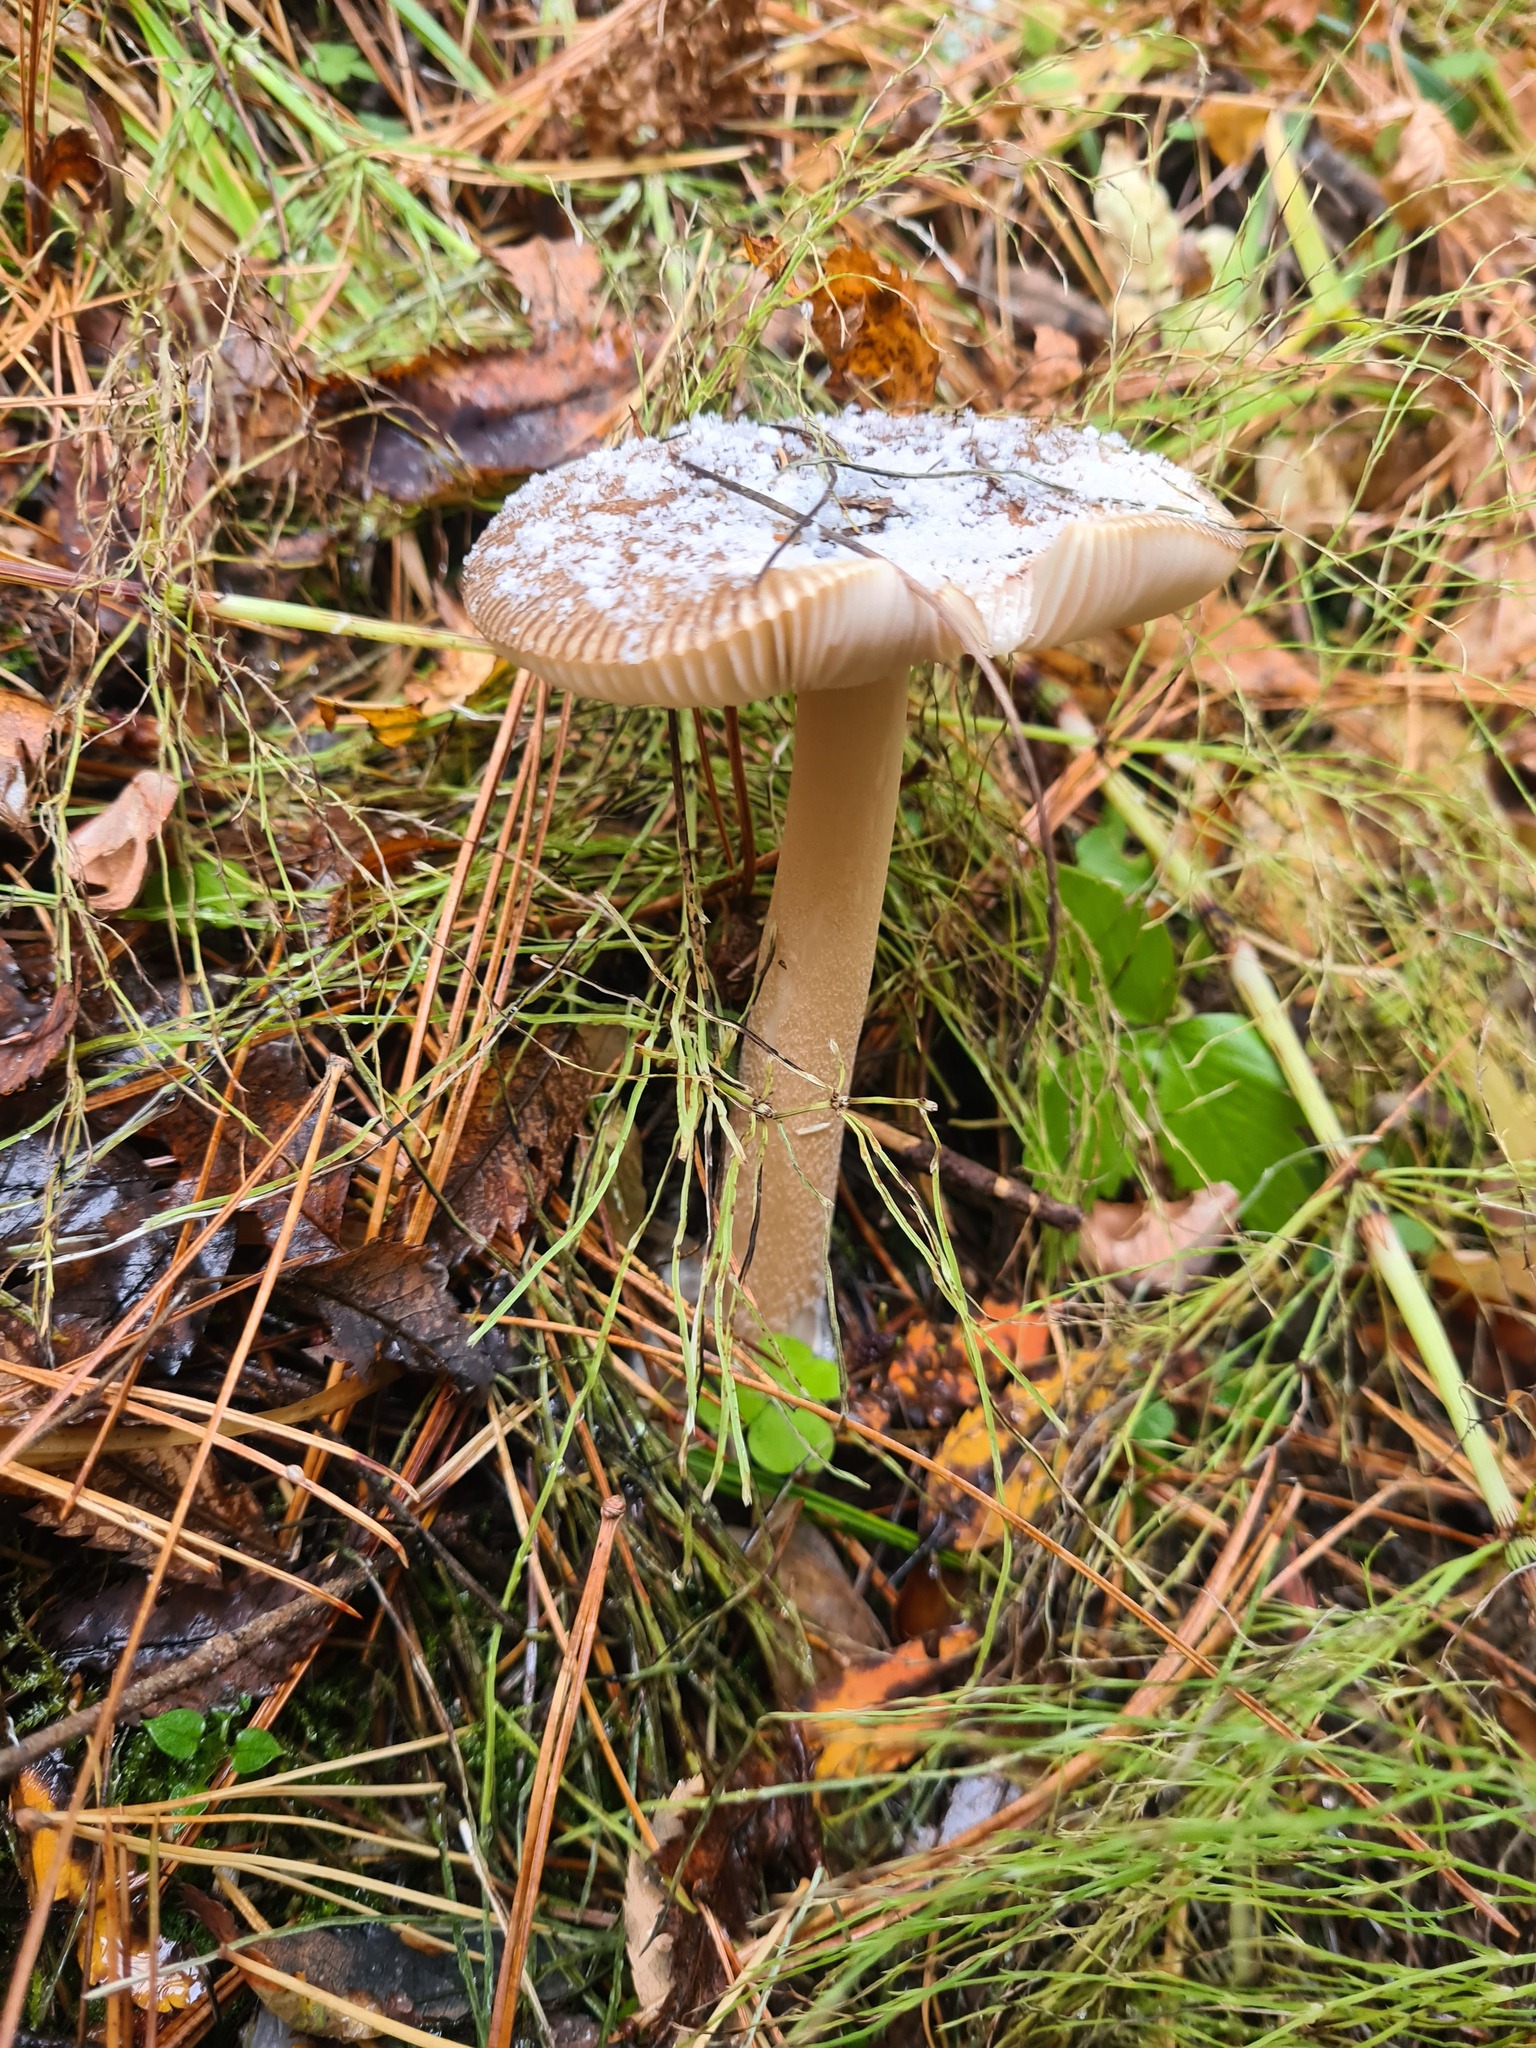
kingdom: Fungi
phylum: Basidiomycota
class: Agaricomycetes
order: Agaricales
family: Amanitaceae
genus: Amanita
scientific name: Amanita fulva
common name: Tawny grisette
